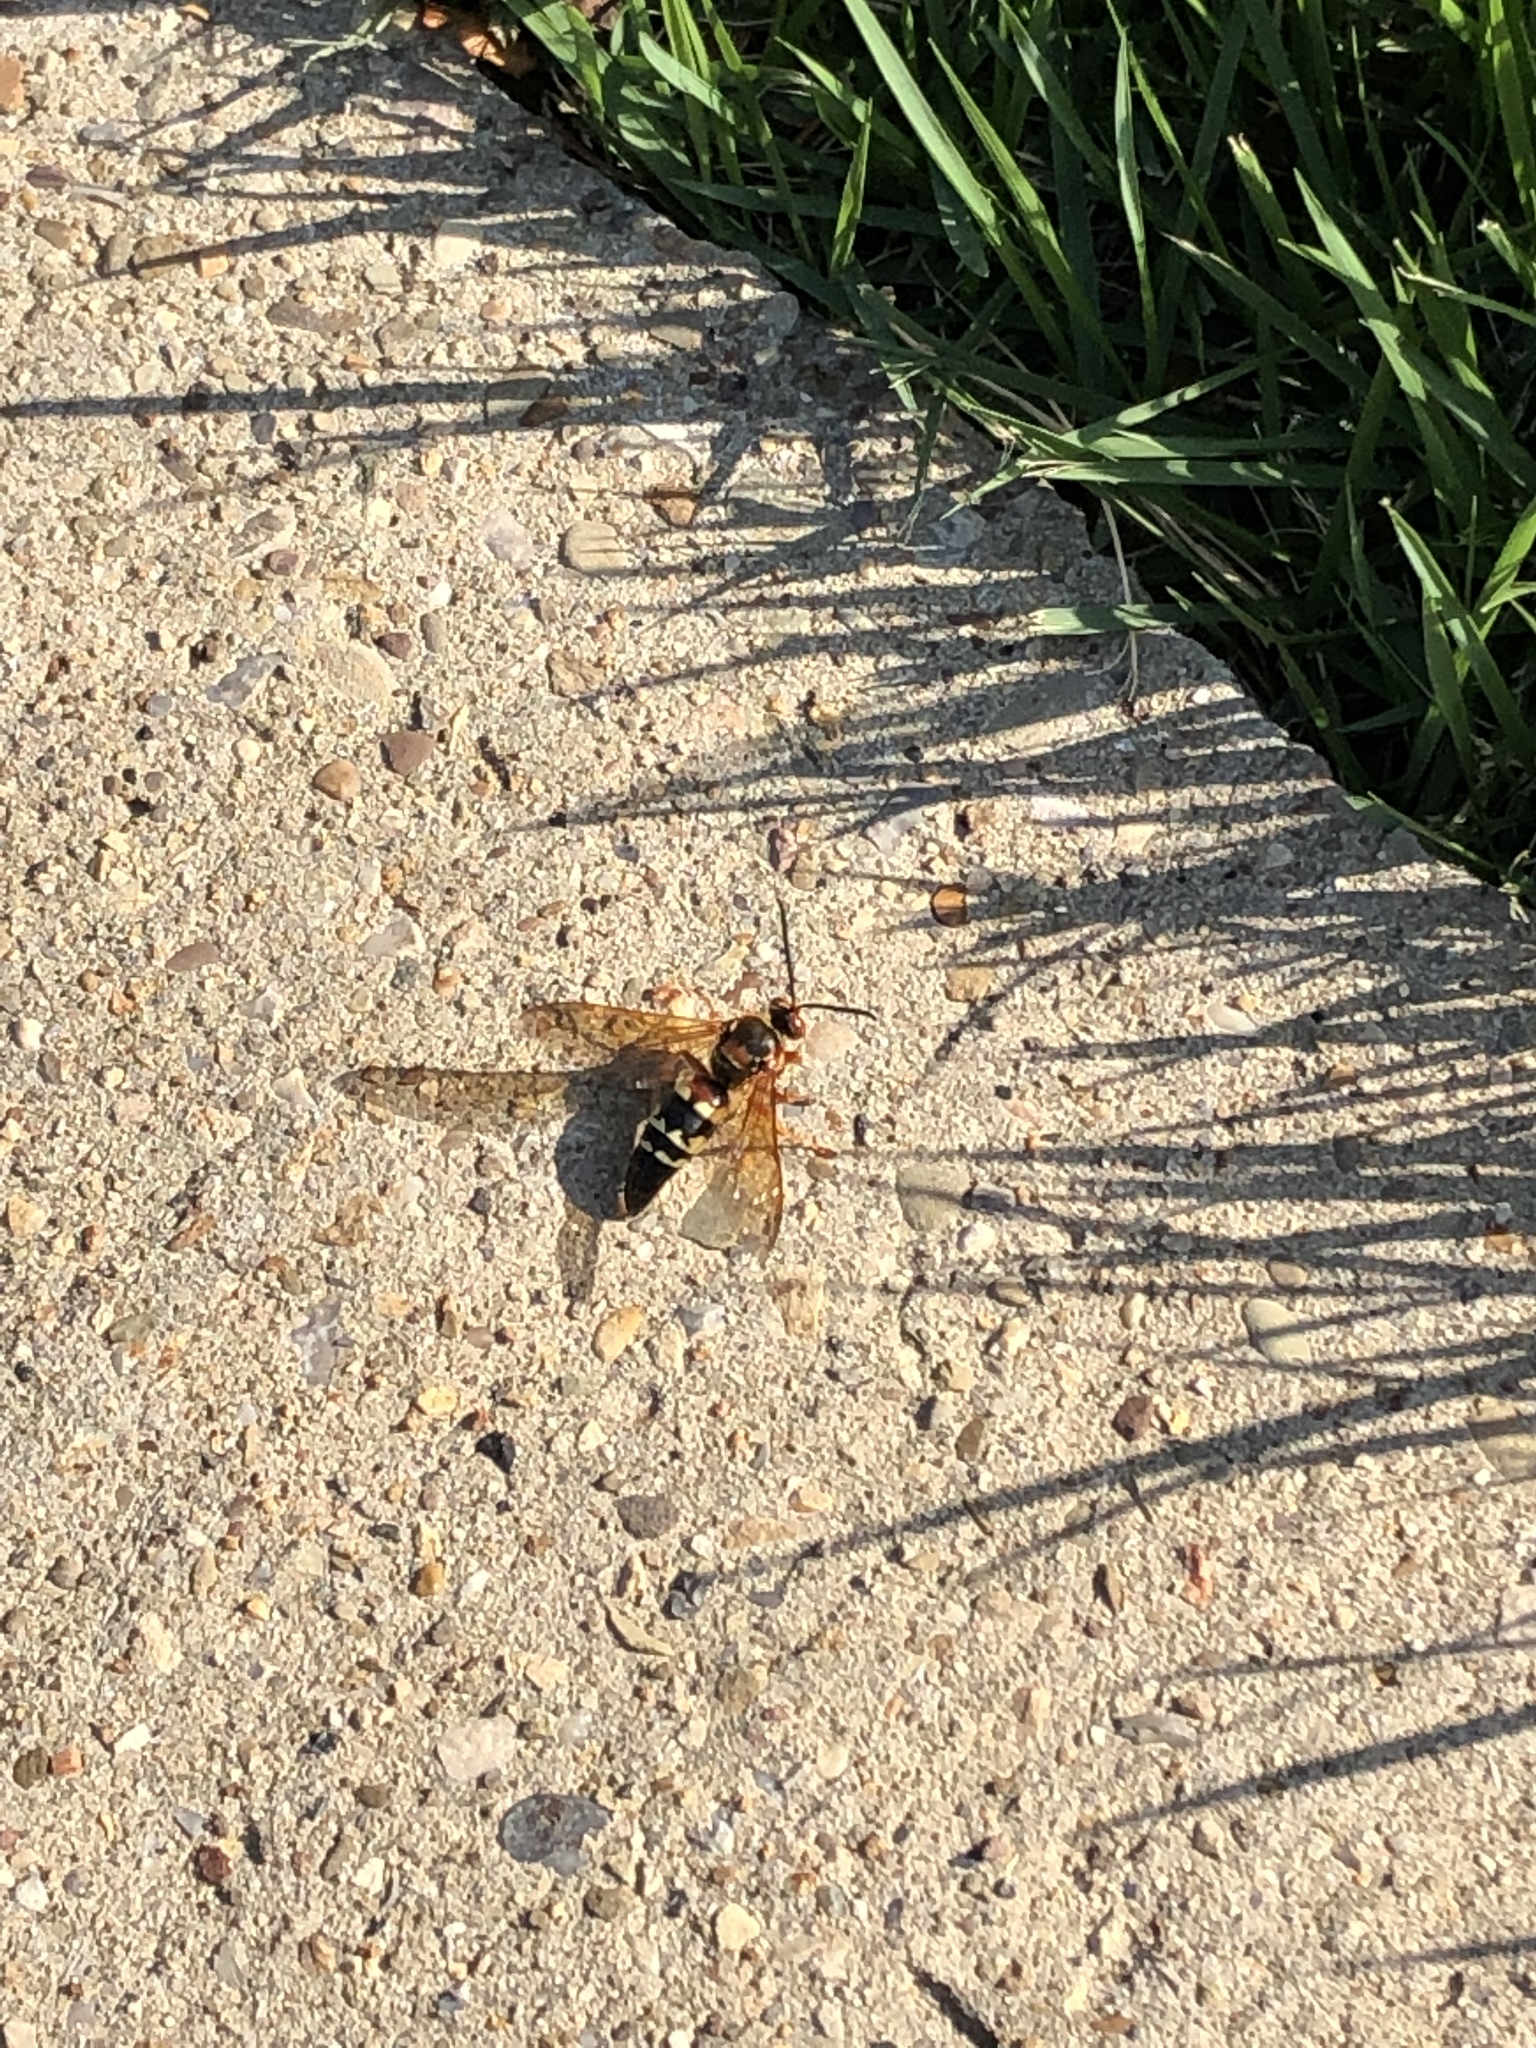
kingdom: Animalia
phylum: Arthropoda
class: Insecta
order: Hymenoptera
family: Crabronidae
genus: Sphecius
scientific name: Sphecius speciosus
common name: Cicada killer
